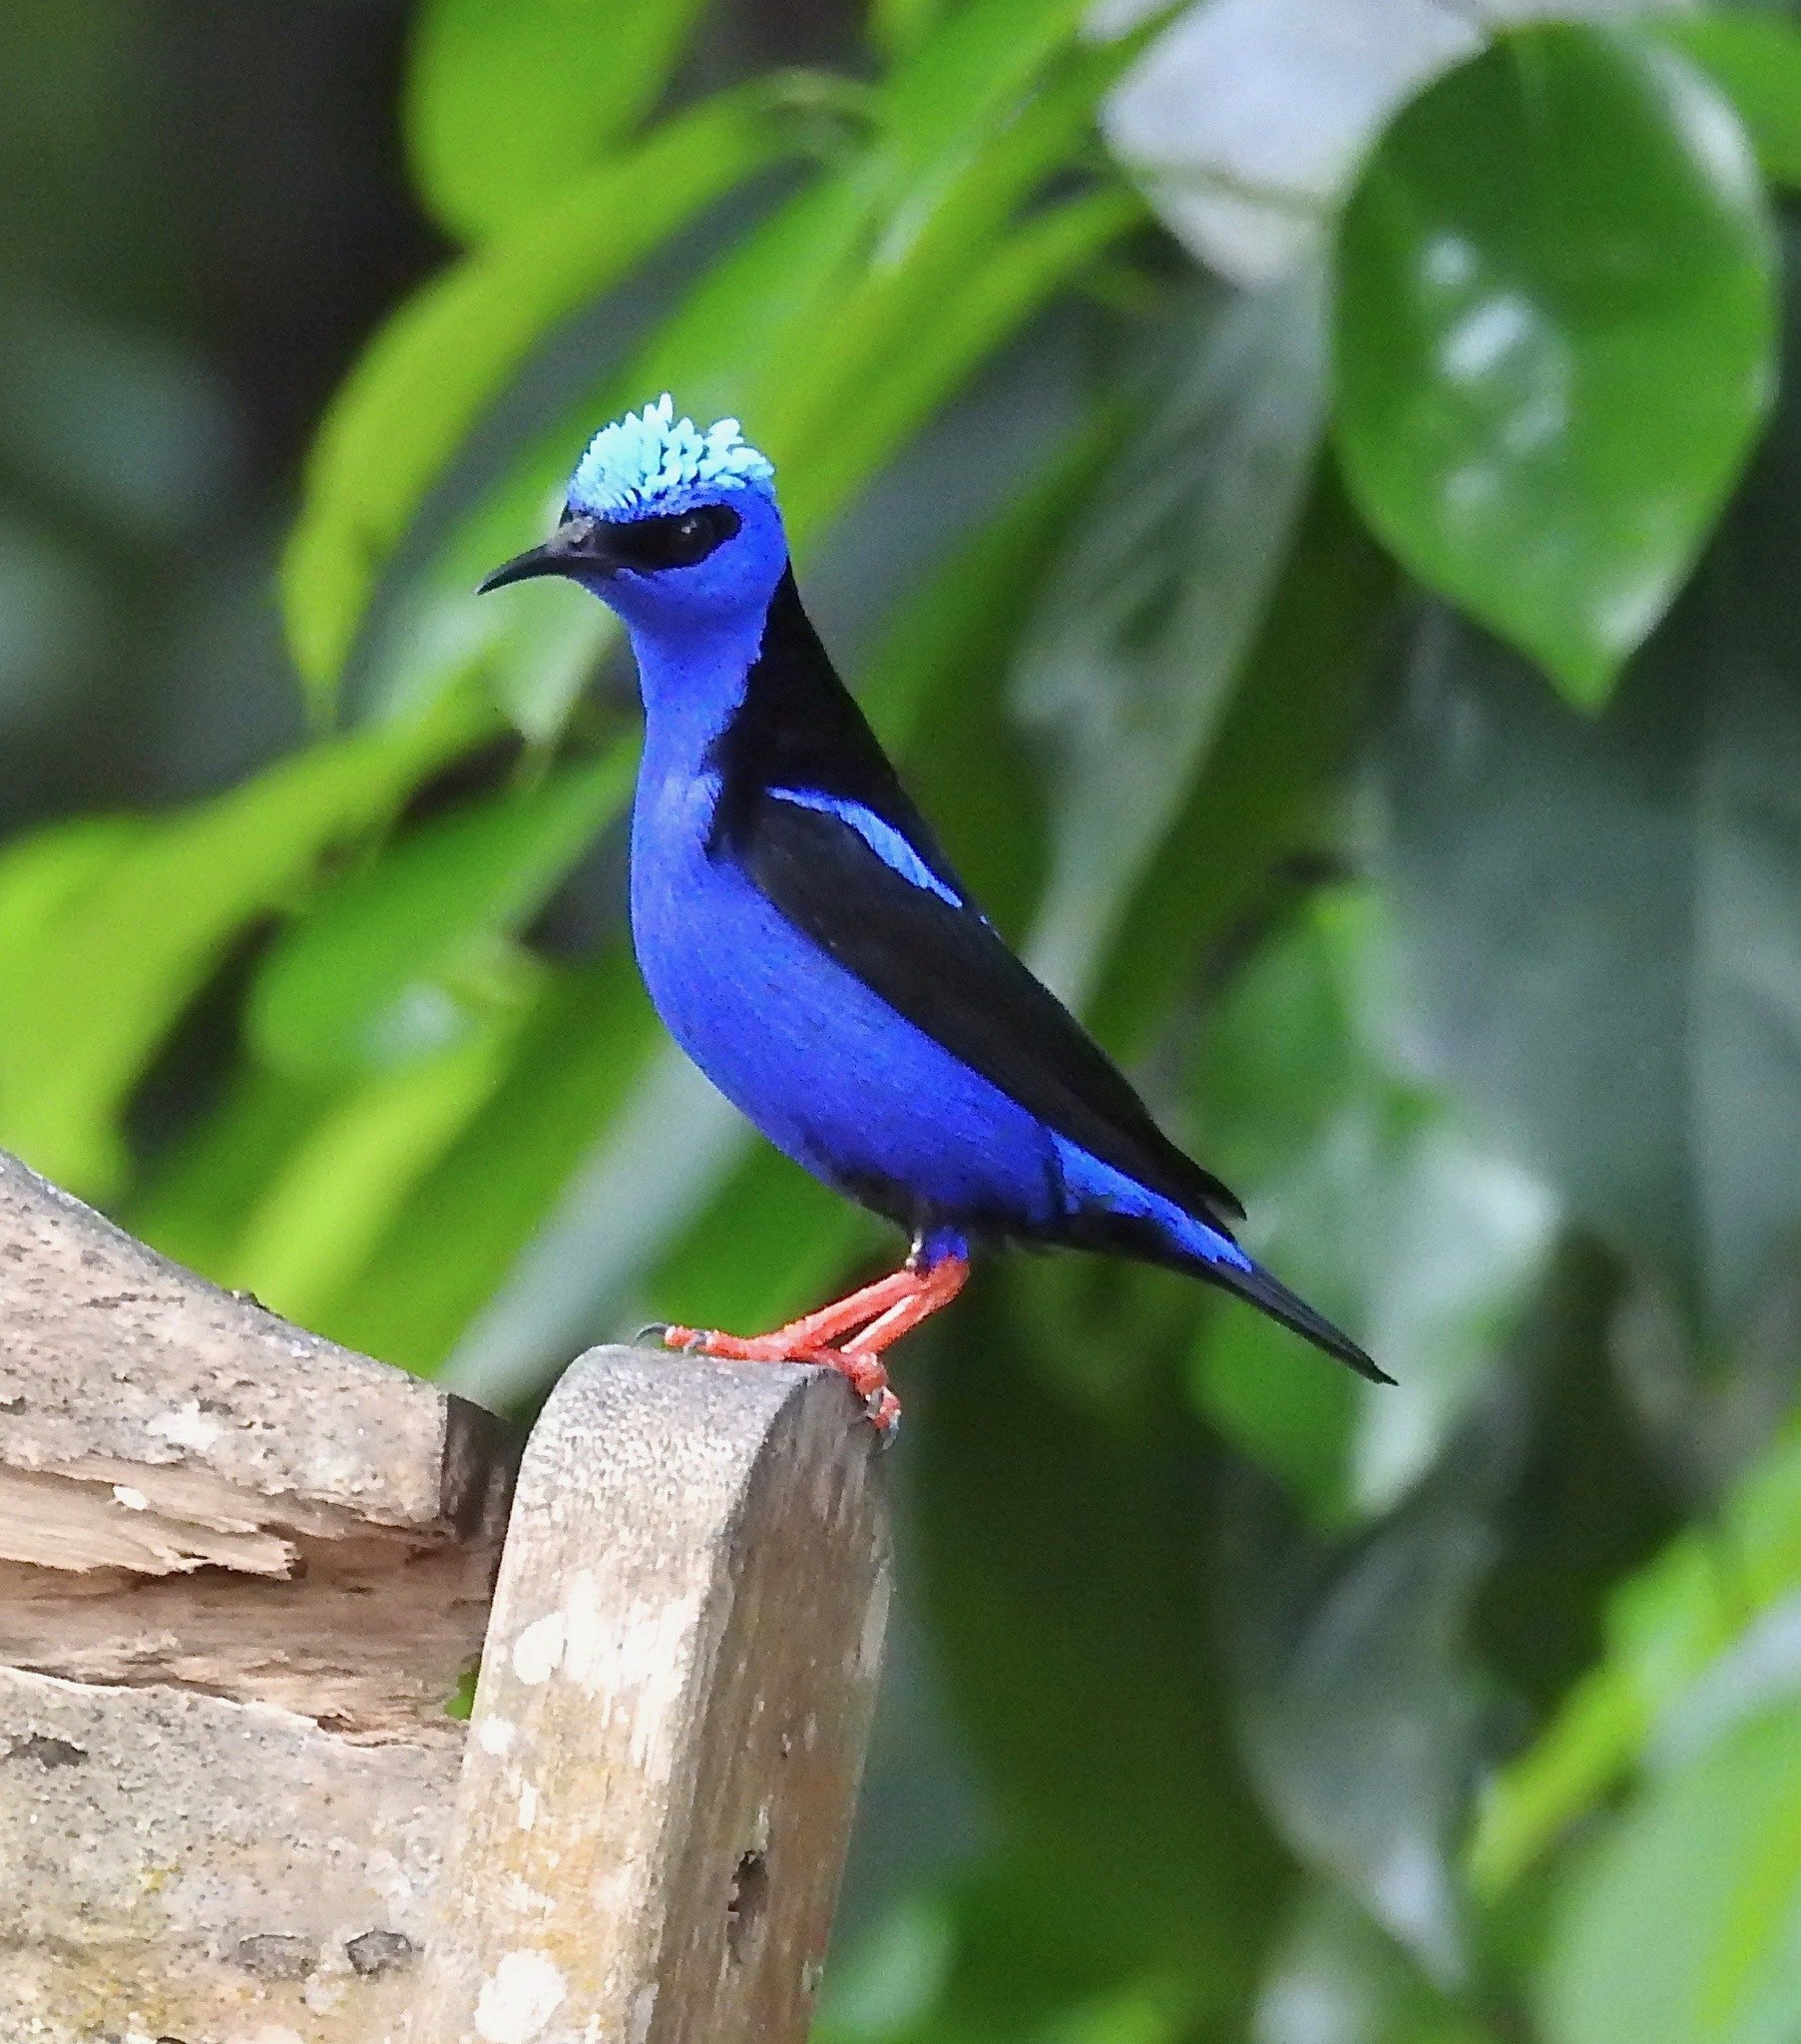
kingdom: Animalia
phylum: Chordata
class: Aves
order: Passeriformes
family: Thraupidae
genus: Cyanerpes
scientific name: Cyanerpes cyaneus
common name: Red-legged honeycreeper
